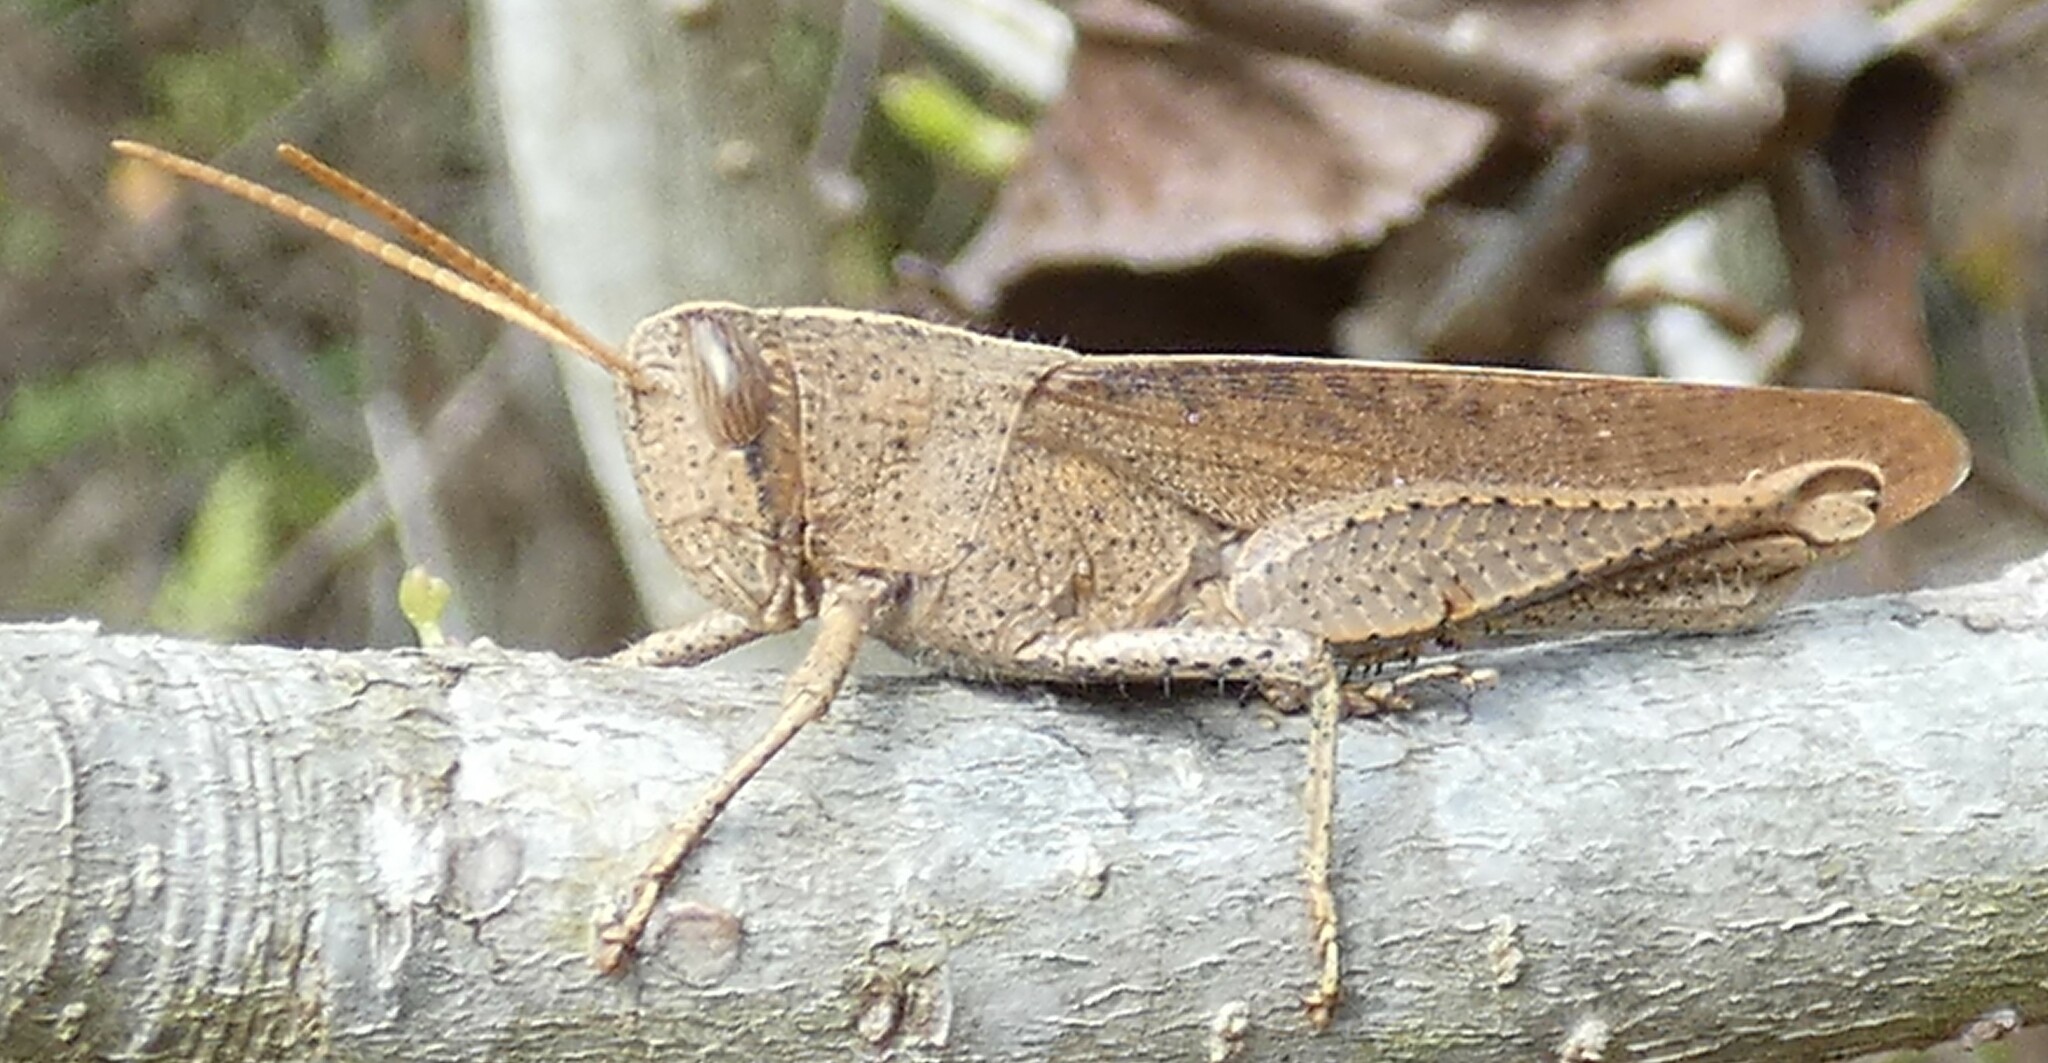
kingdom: Animalia
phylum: Arthropoda
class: Insecta
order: Orthoptera
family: Acrididae
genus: Schistocerca
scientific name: Schistocerca damnifica
